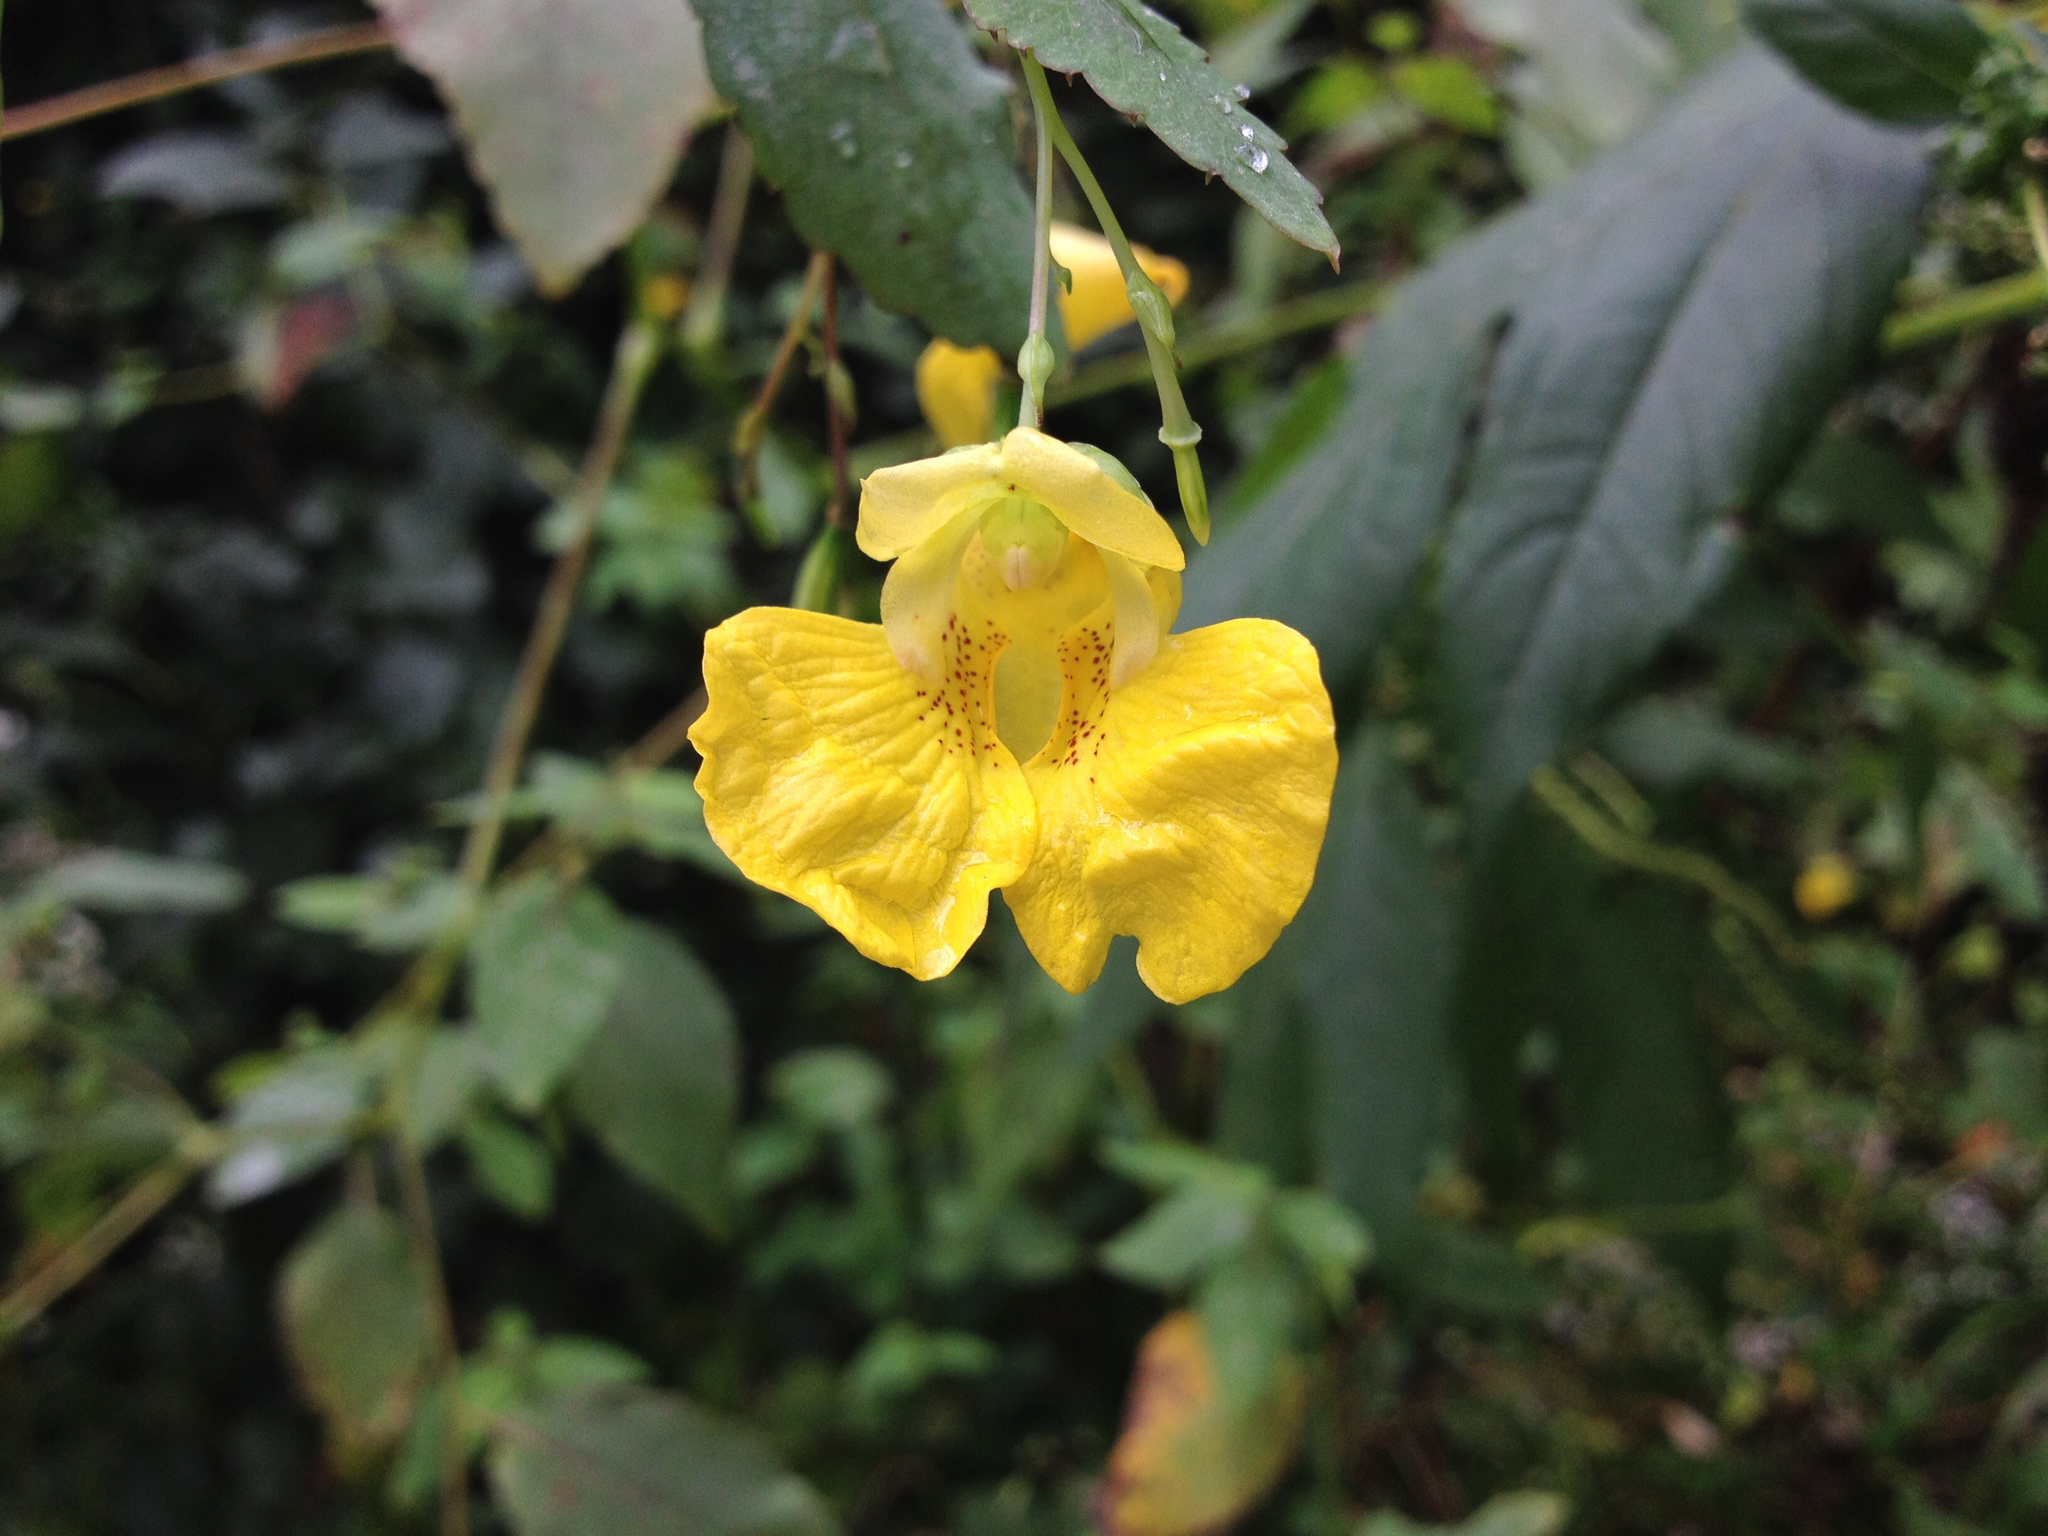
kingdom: Plantae
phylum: Tracheophyta
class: Magnoliopsida
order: Ericales
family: Balsaminaceae
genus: Impatiens
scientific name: Impatiens pallida
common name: Pale snapweed
